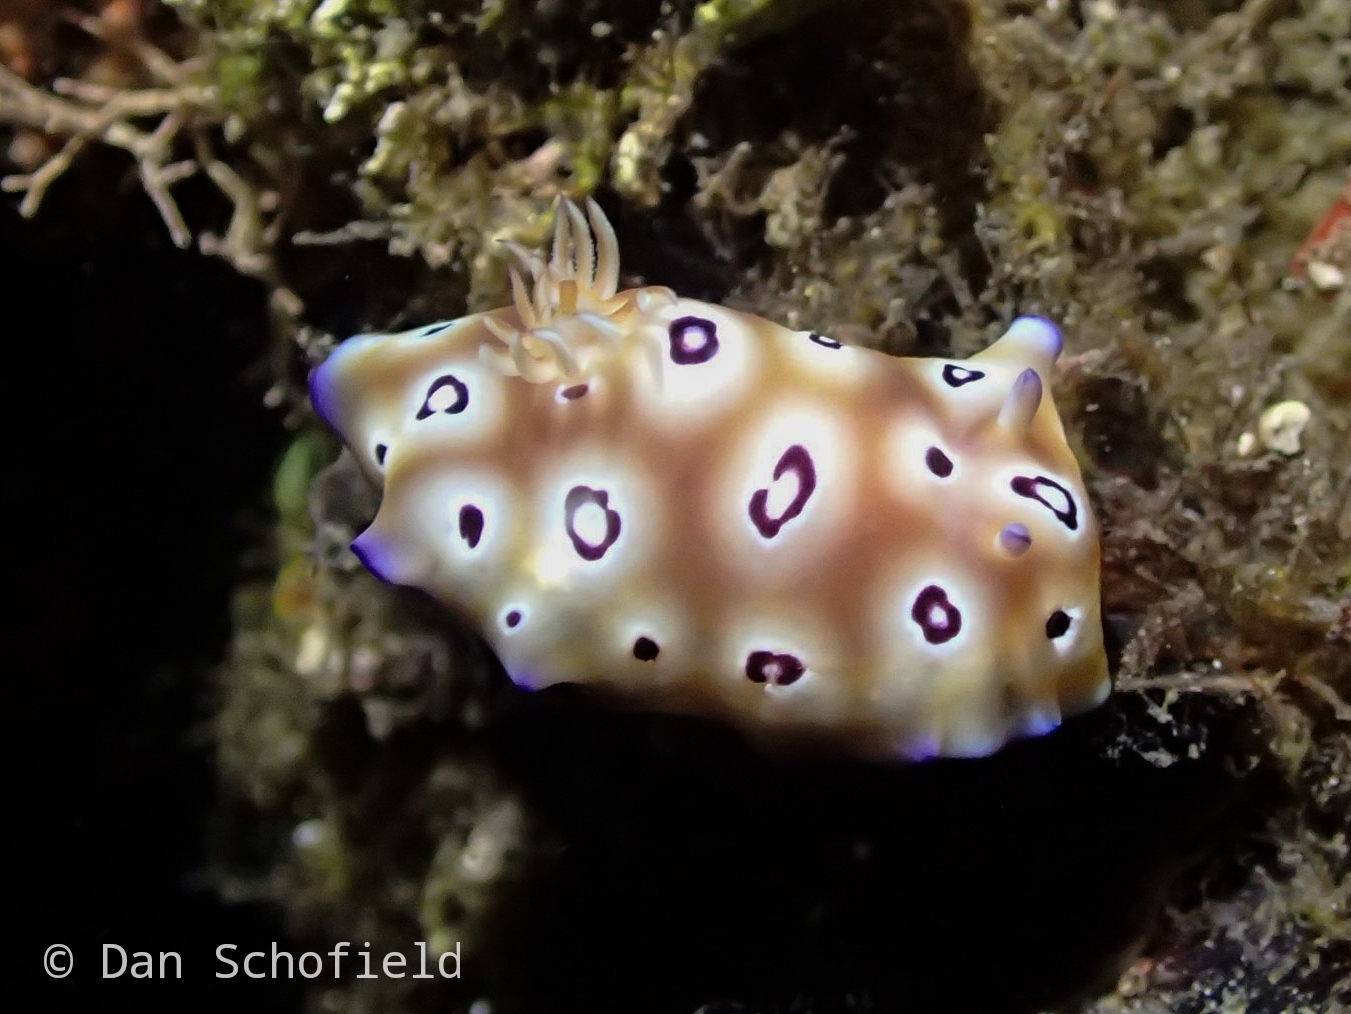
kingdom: Animalia
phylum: Mollusca
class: Gastropoda
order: Nudibranchia
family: Chromodorididae
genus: Goniobranchus
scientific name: Goniobranchus leopardus
